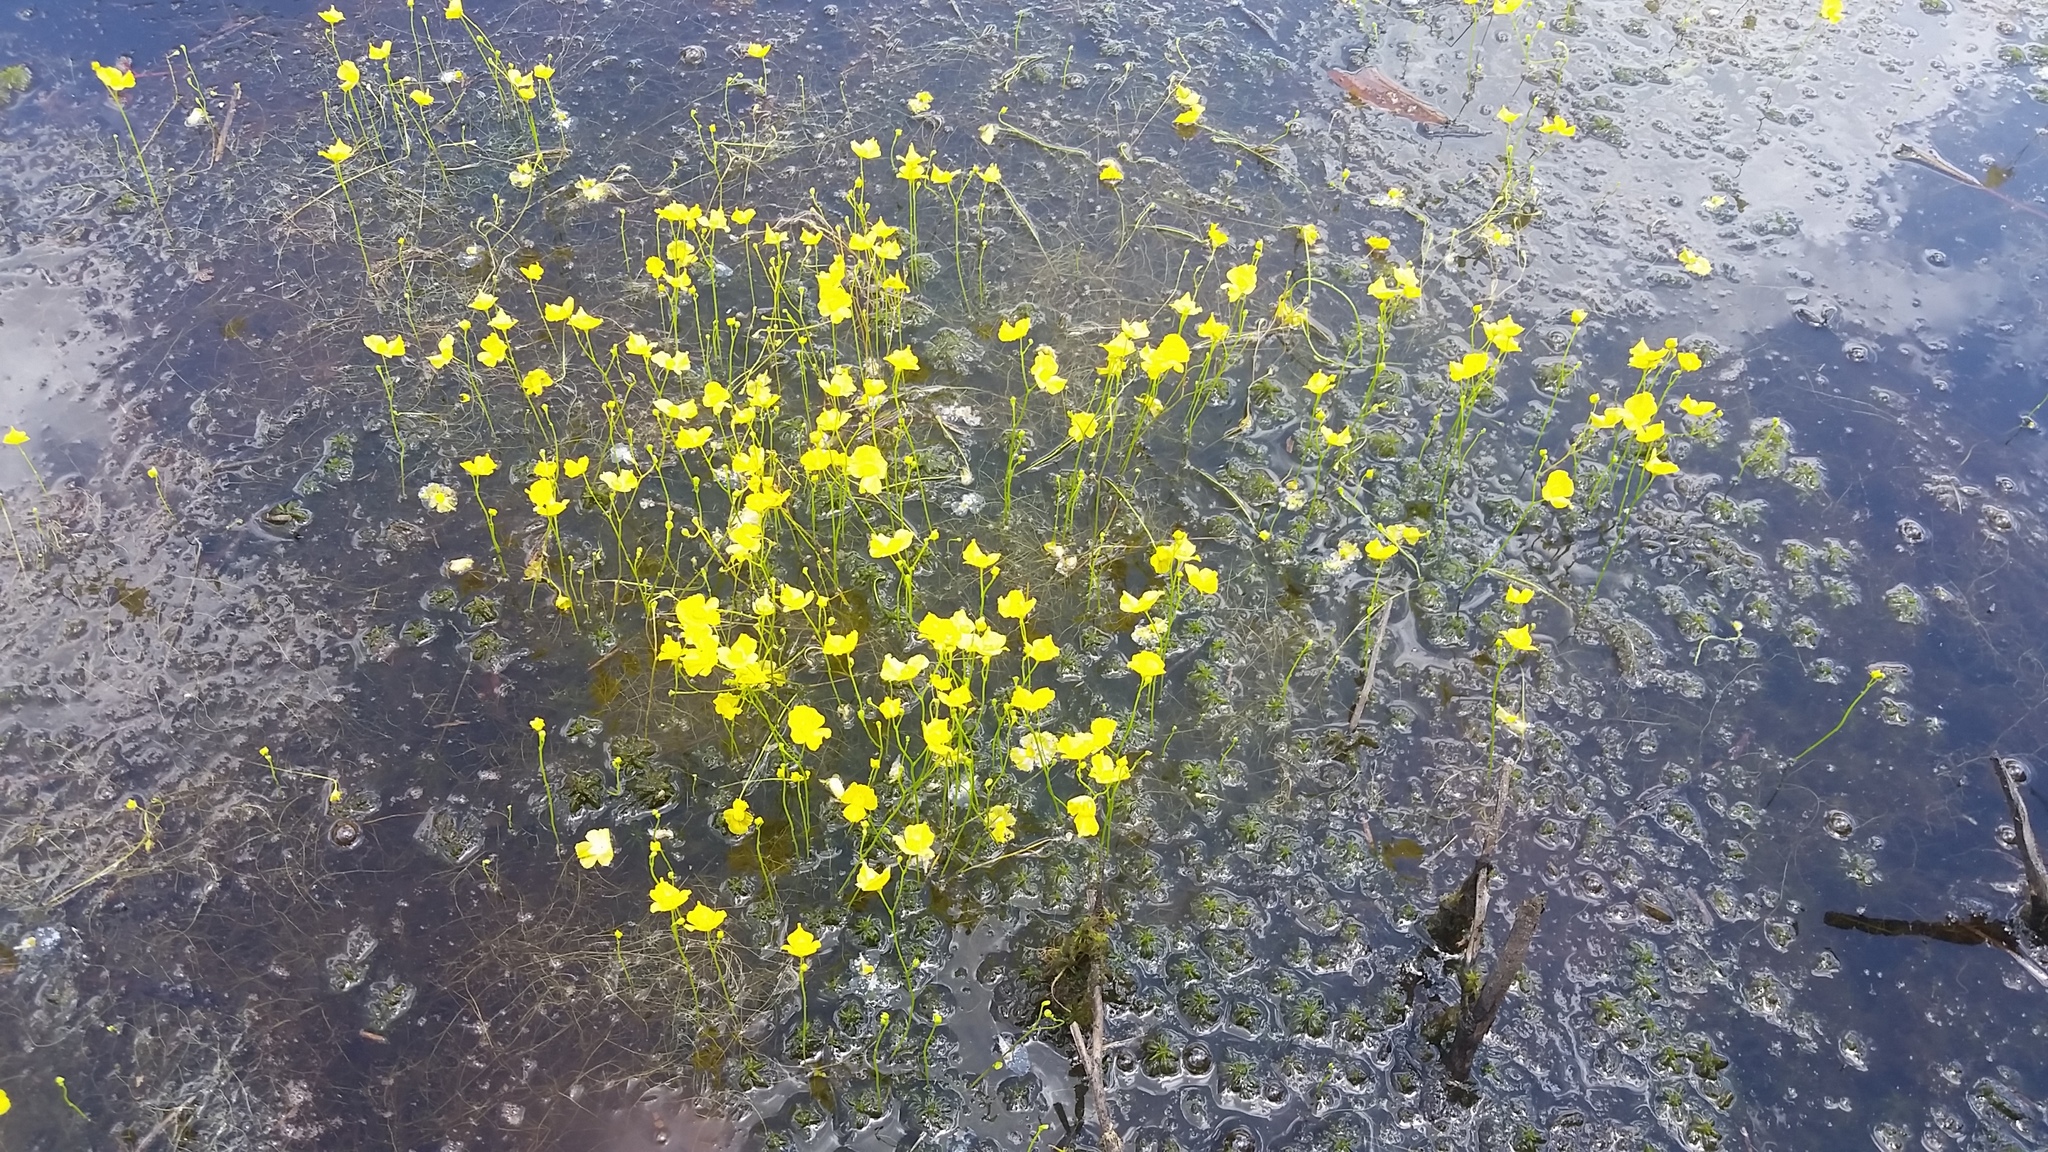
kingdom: Plantae
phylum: Tracheophyta
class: Magnoliopsida
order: Lamiales
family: Lentibulariaceae
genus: Utricularia
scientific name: Utricularia gibba
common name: Humped bladderwort
